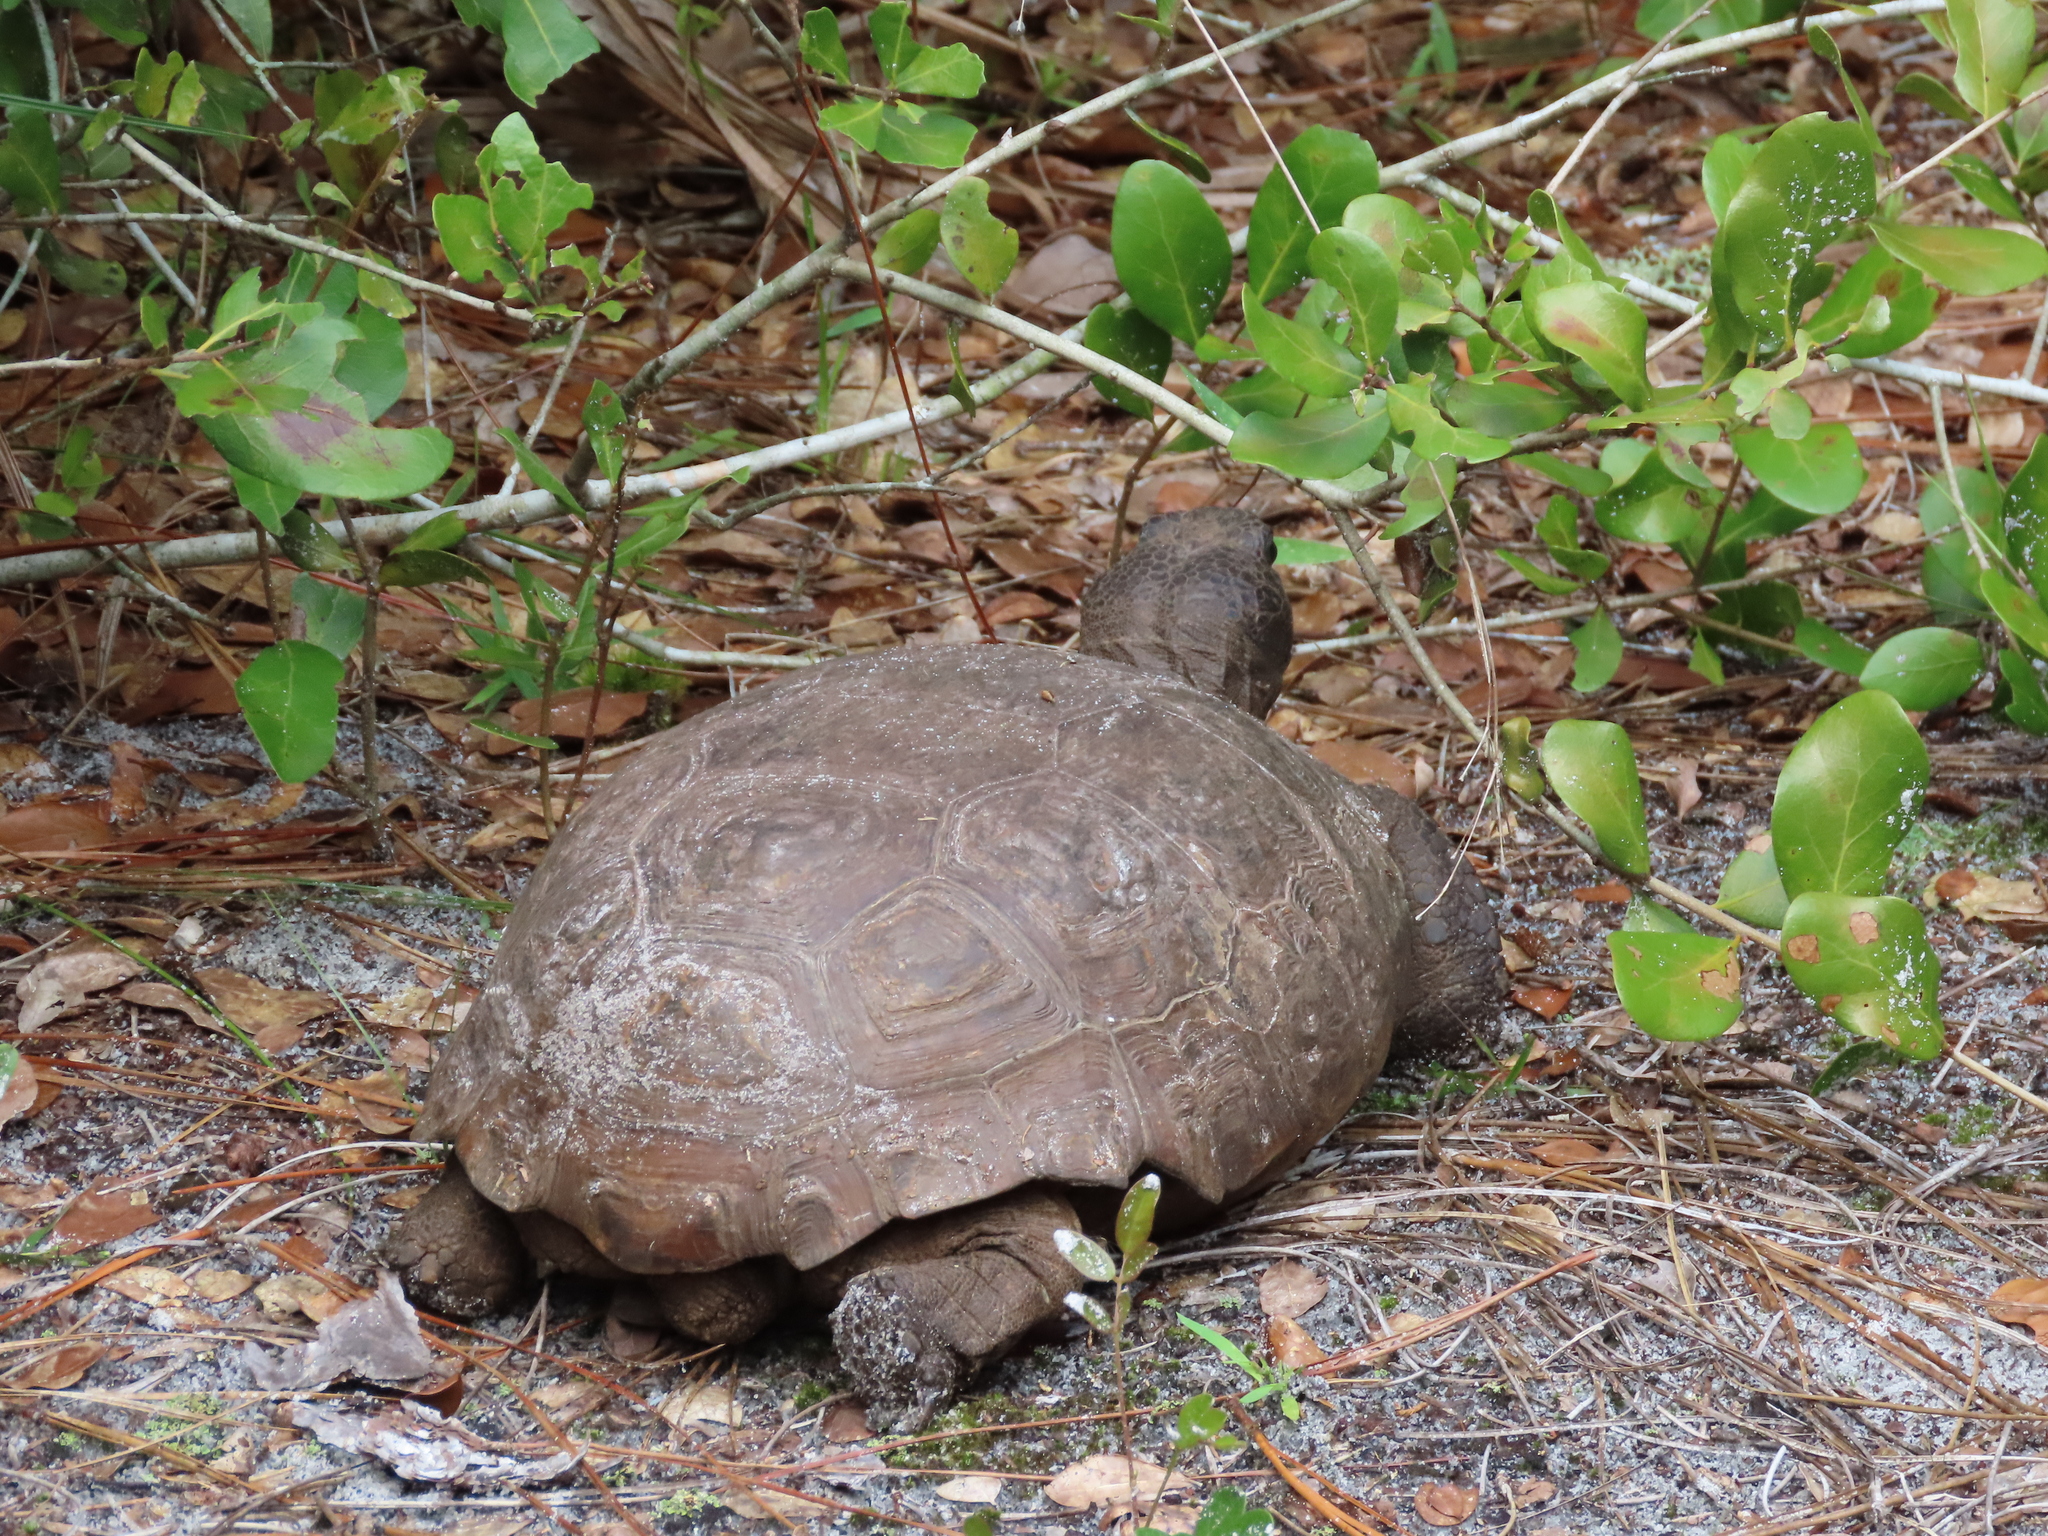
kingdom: Animalia
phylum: Chordata
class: Testudines
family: Testudinidae
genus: Gopherus
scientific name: Gopherus polyphemus
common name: Florida gopher tortoise
